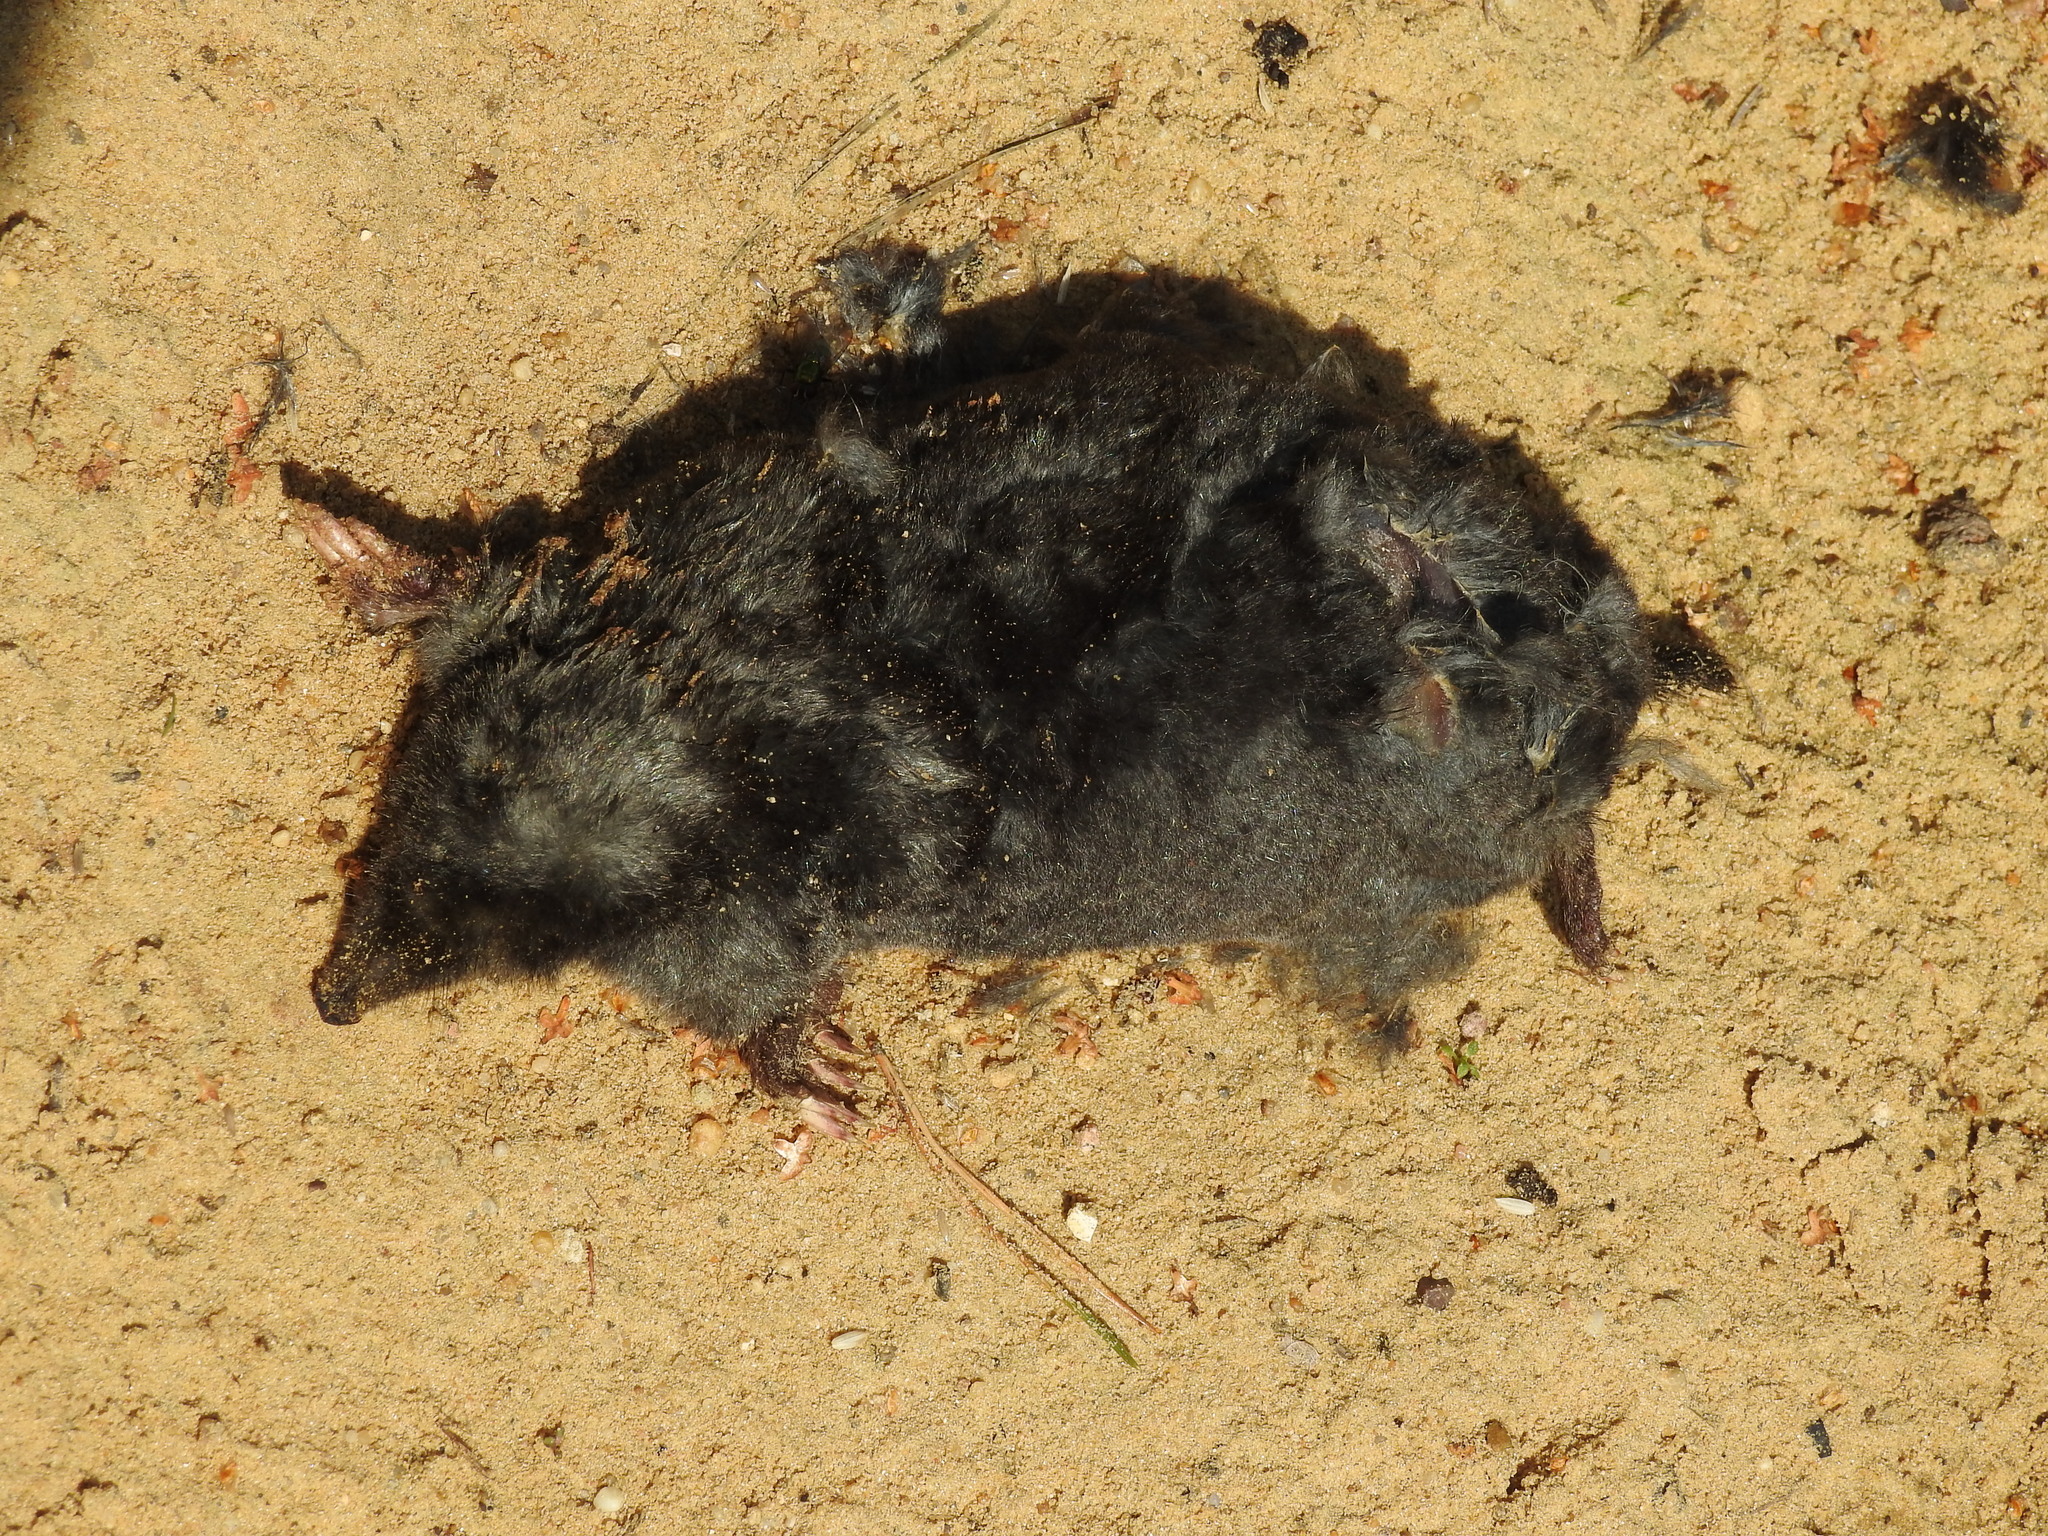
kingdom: Animalia
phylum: Chordata
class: Mammalia
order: Soricomorpha
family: Talpidae
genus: Talpa
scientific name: Talpa europaea
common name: European mole
